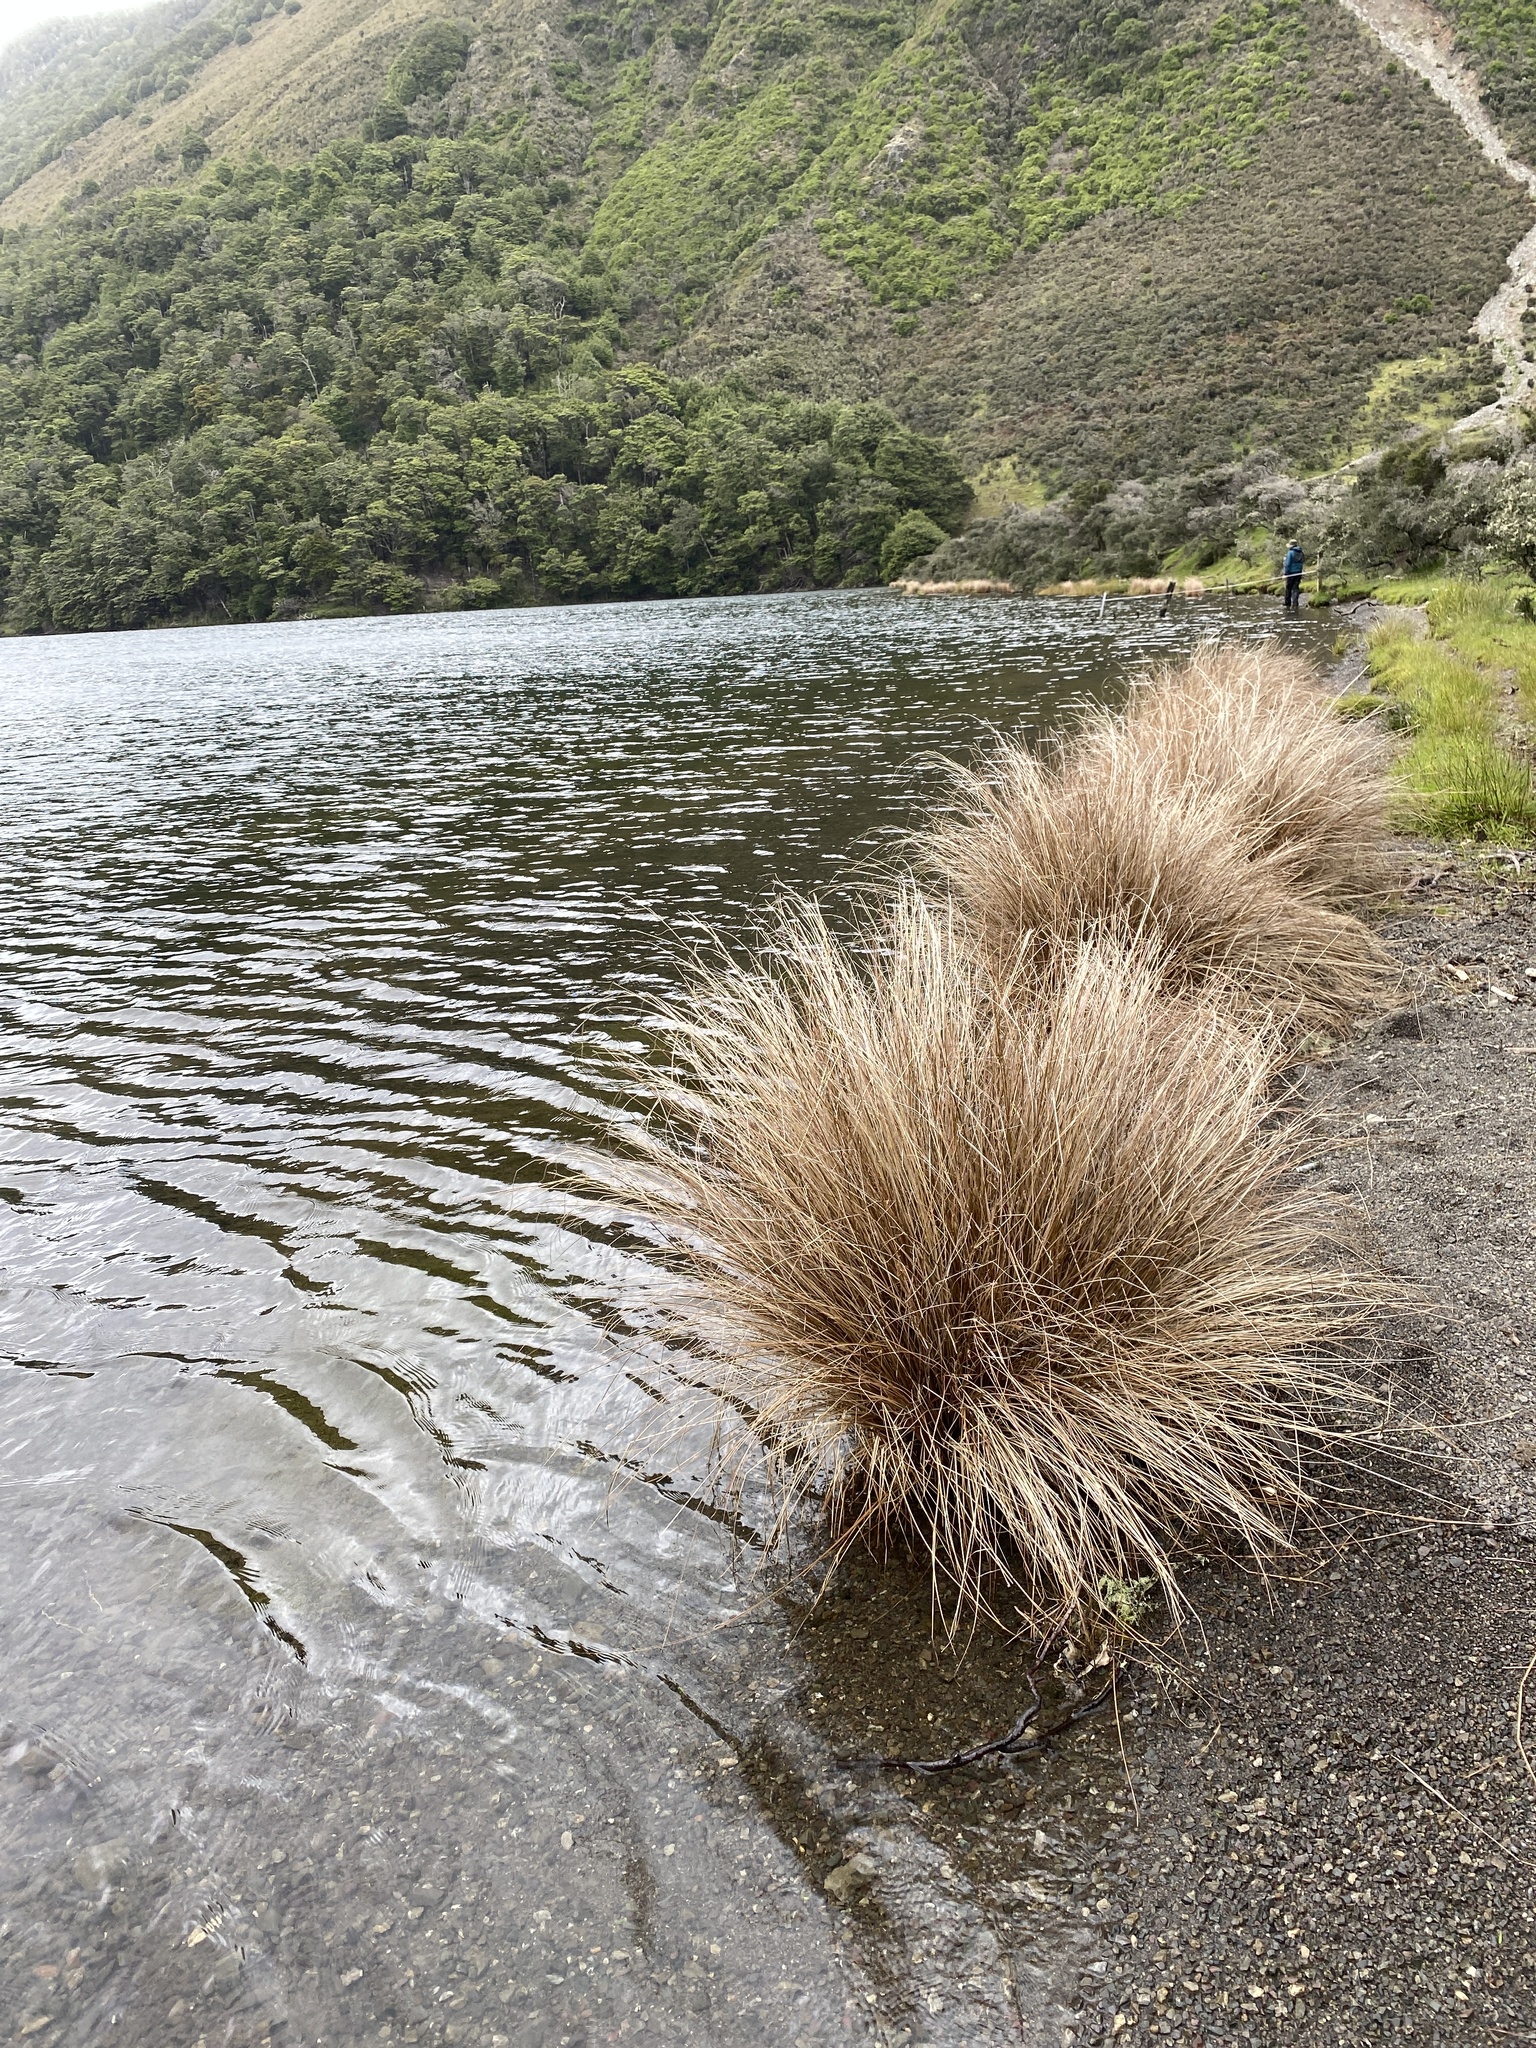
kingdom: Plantae
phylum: Tracheophyta
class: Liliopsida
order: Poales
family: Poaceae
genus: Chionochloa
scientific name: Chionochloa rubra
